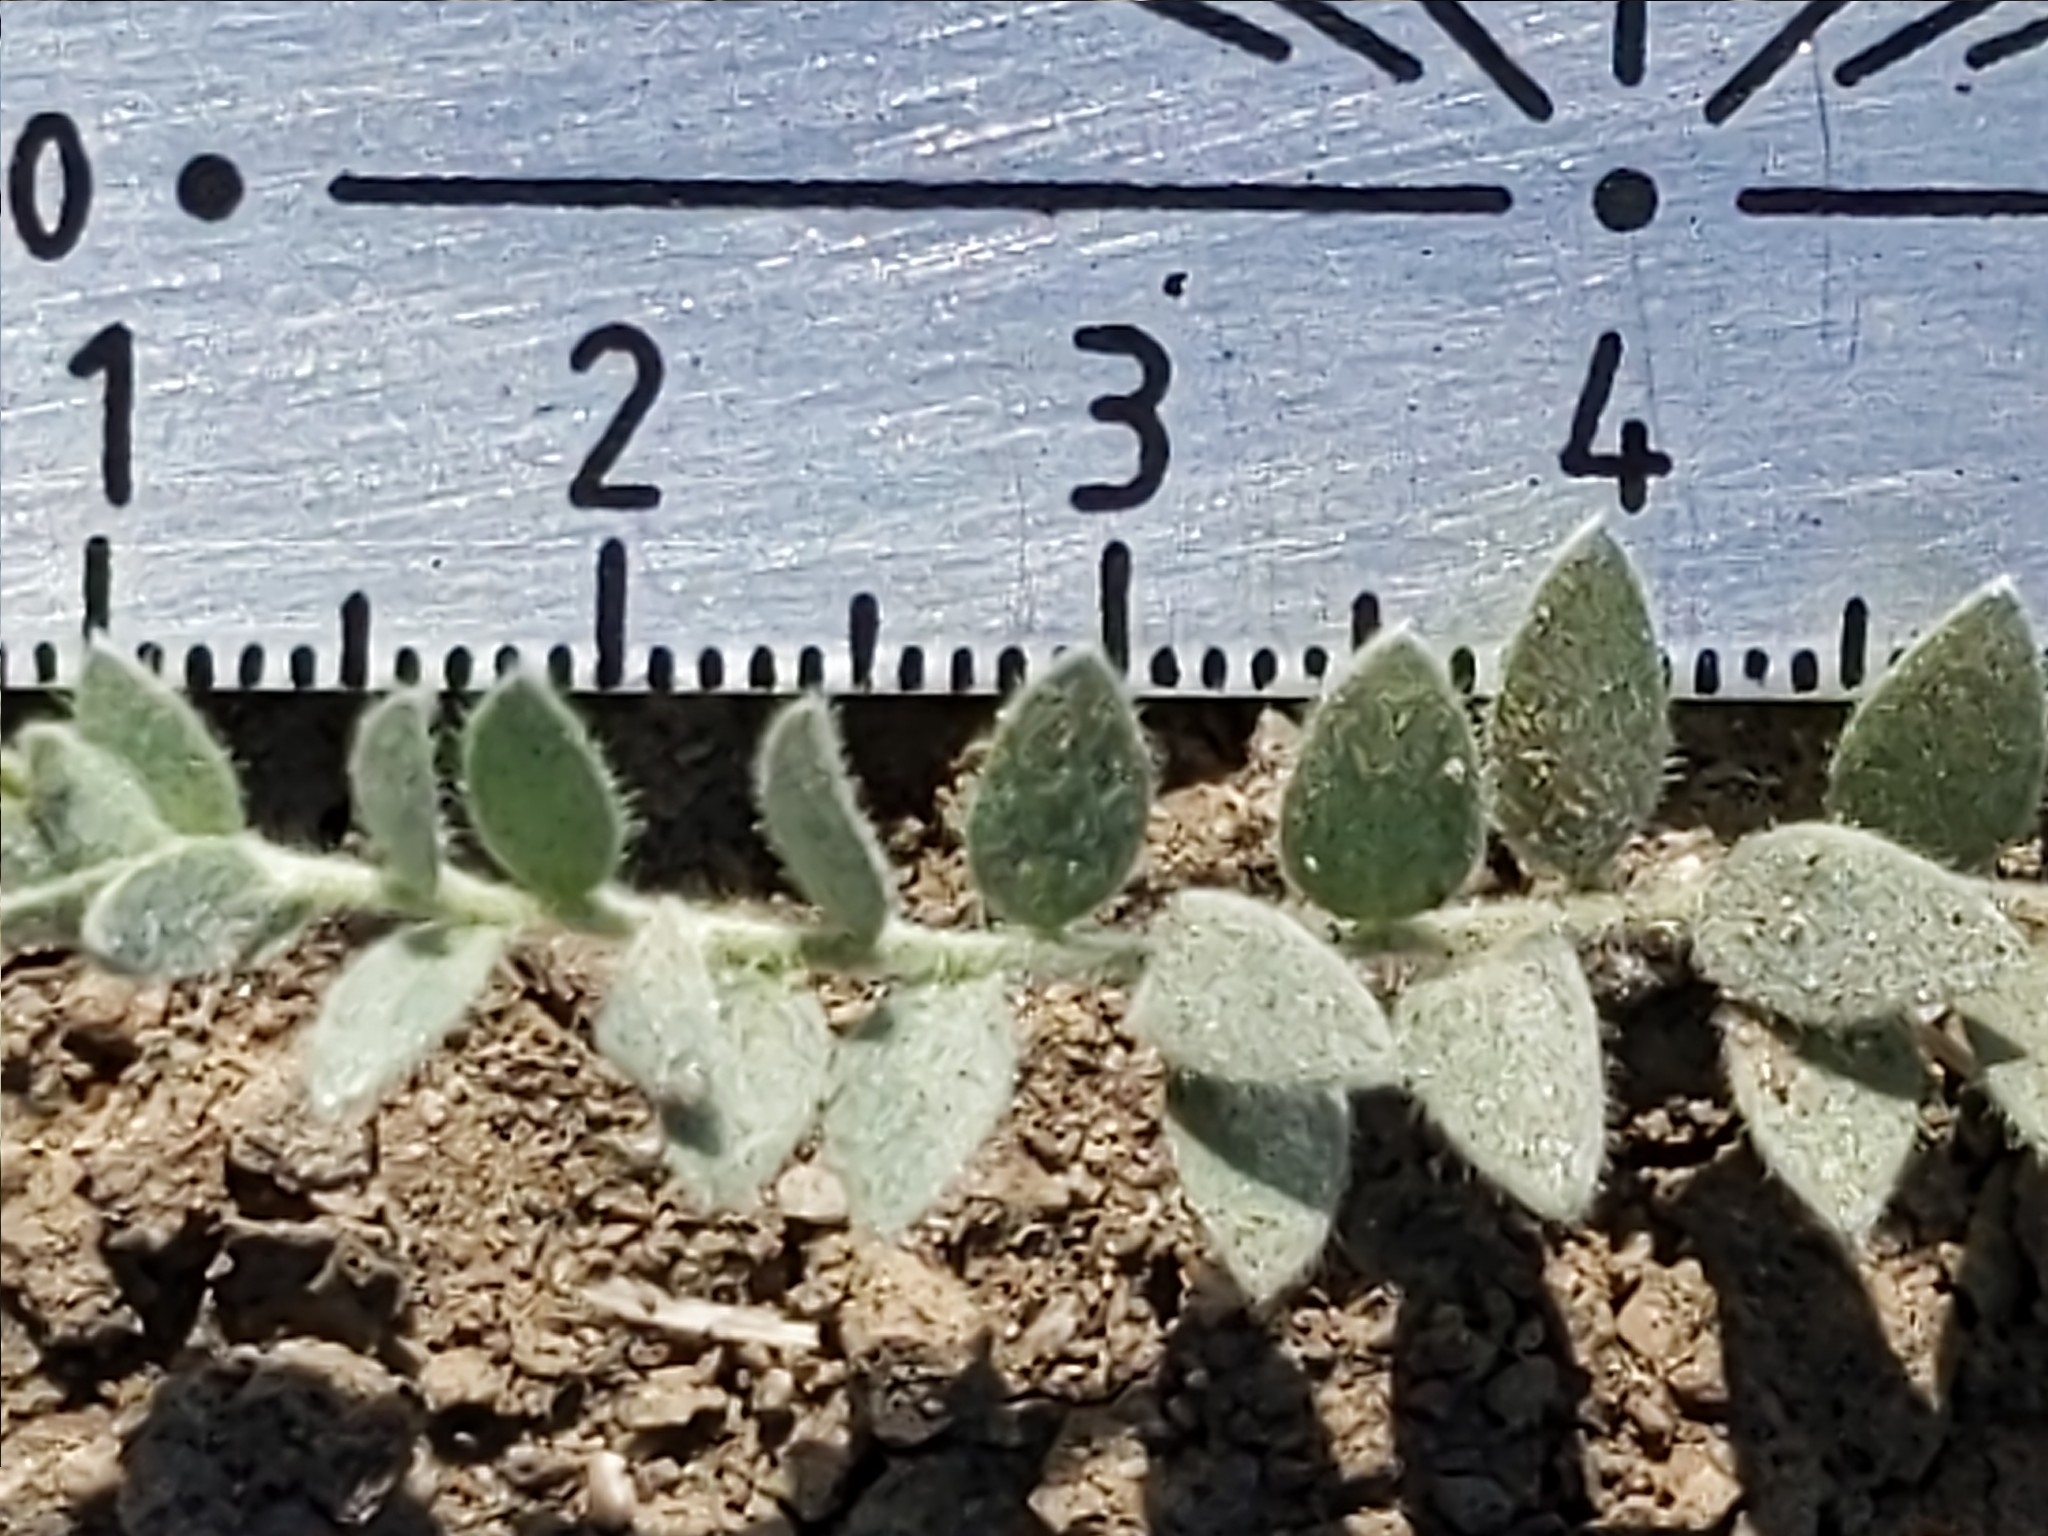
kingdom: Plantae
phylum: Tracheophyta
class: Magnoliopsida
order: Solanales
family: Convolvulaceae
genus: Cressa
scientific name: Cressa truxillensis
